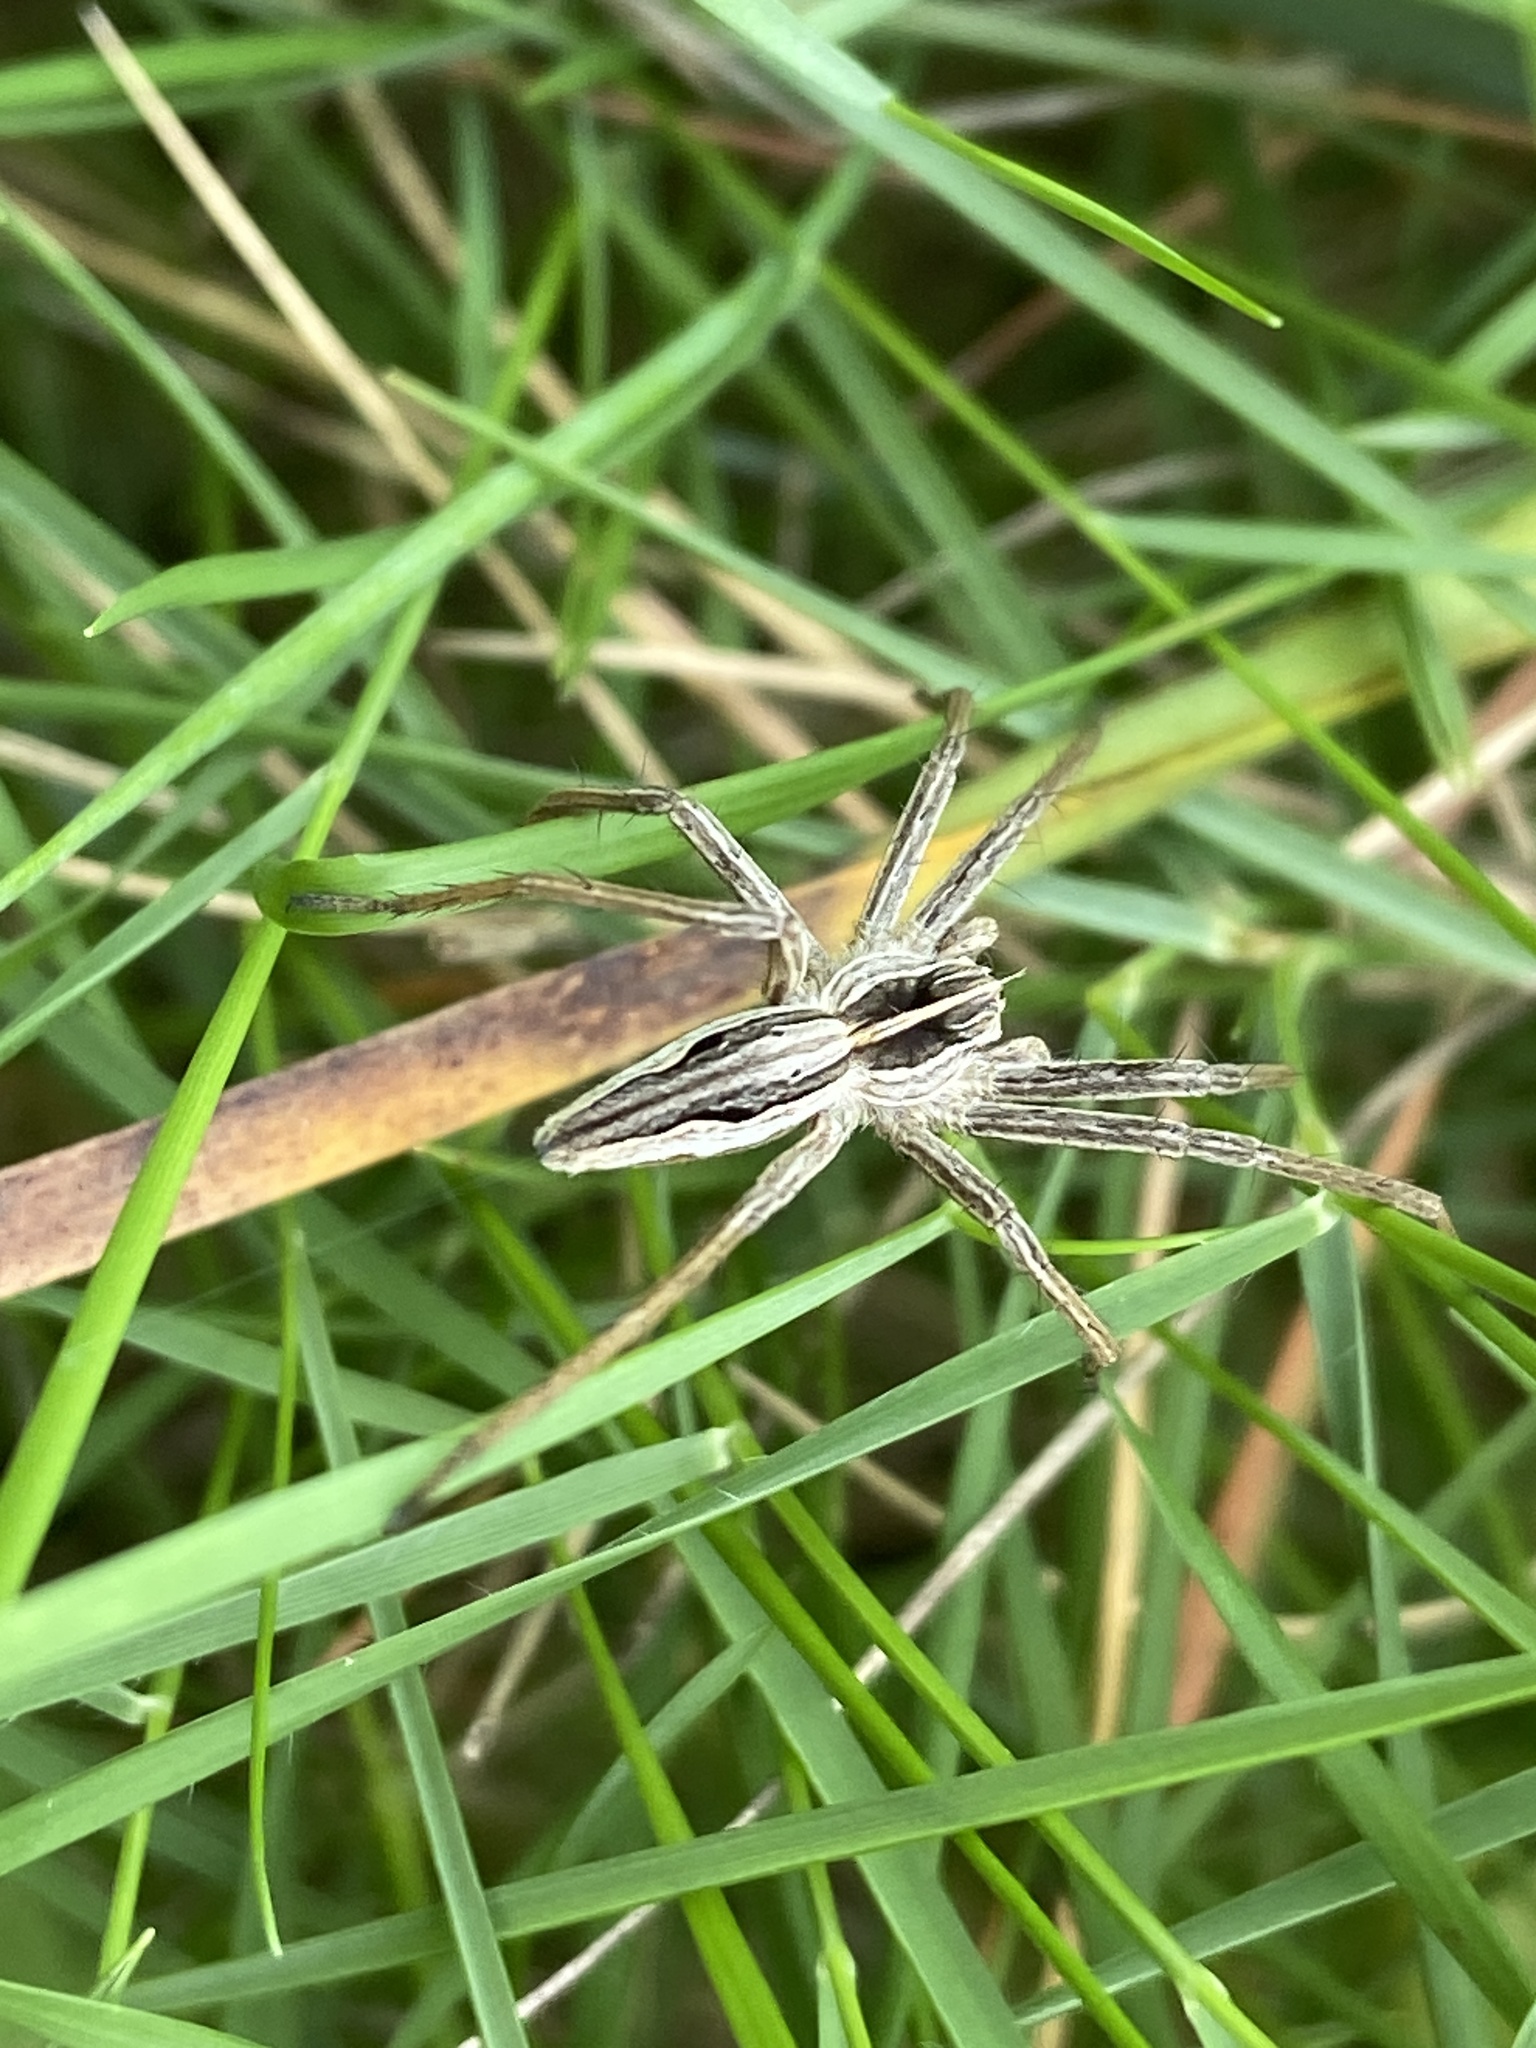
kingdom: Animalia
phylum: Arthropoda
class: Arachnida
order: Araneae
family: Pisauridae
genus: Pisaura
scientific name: Pisaura mirabilis
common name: Tent spider
